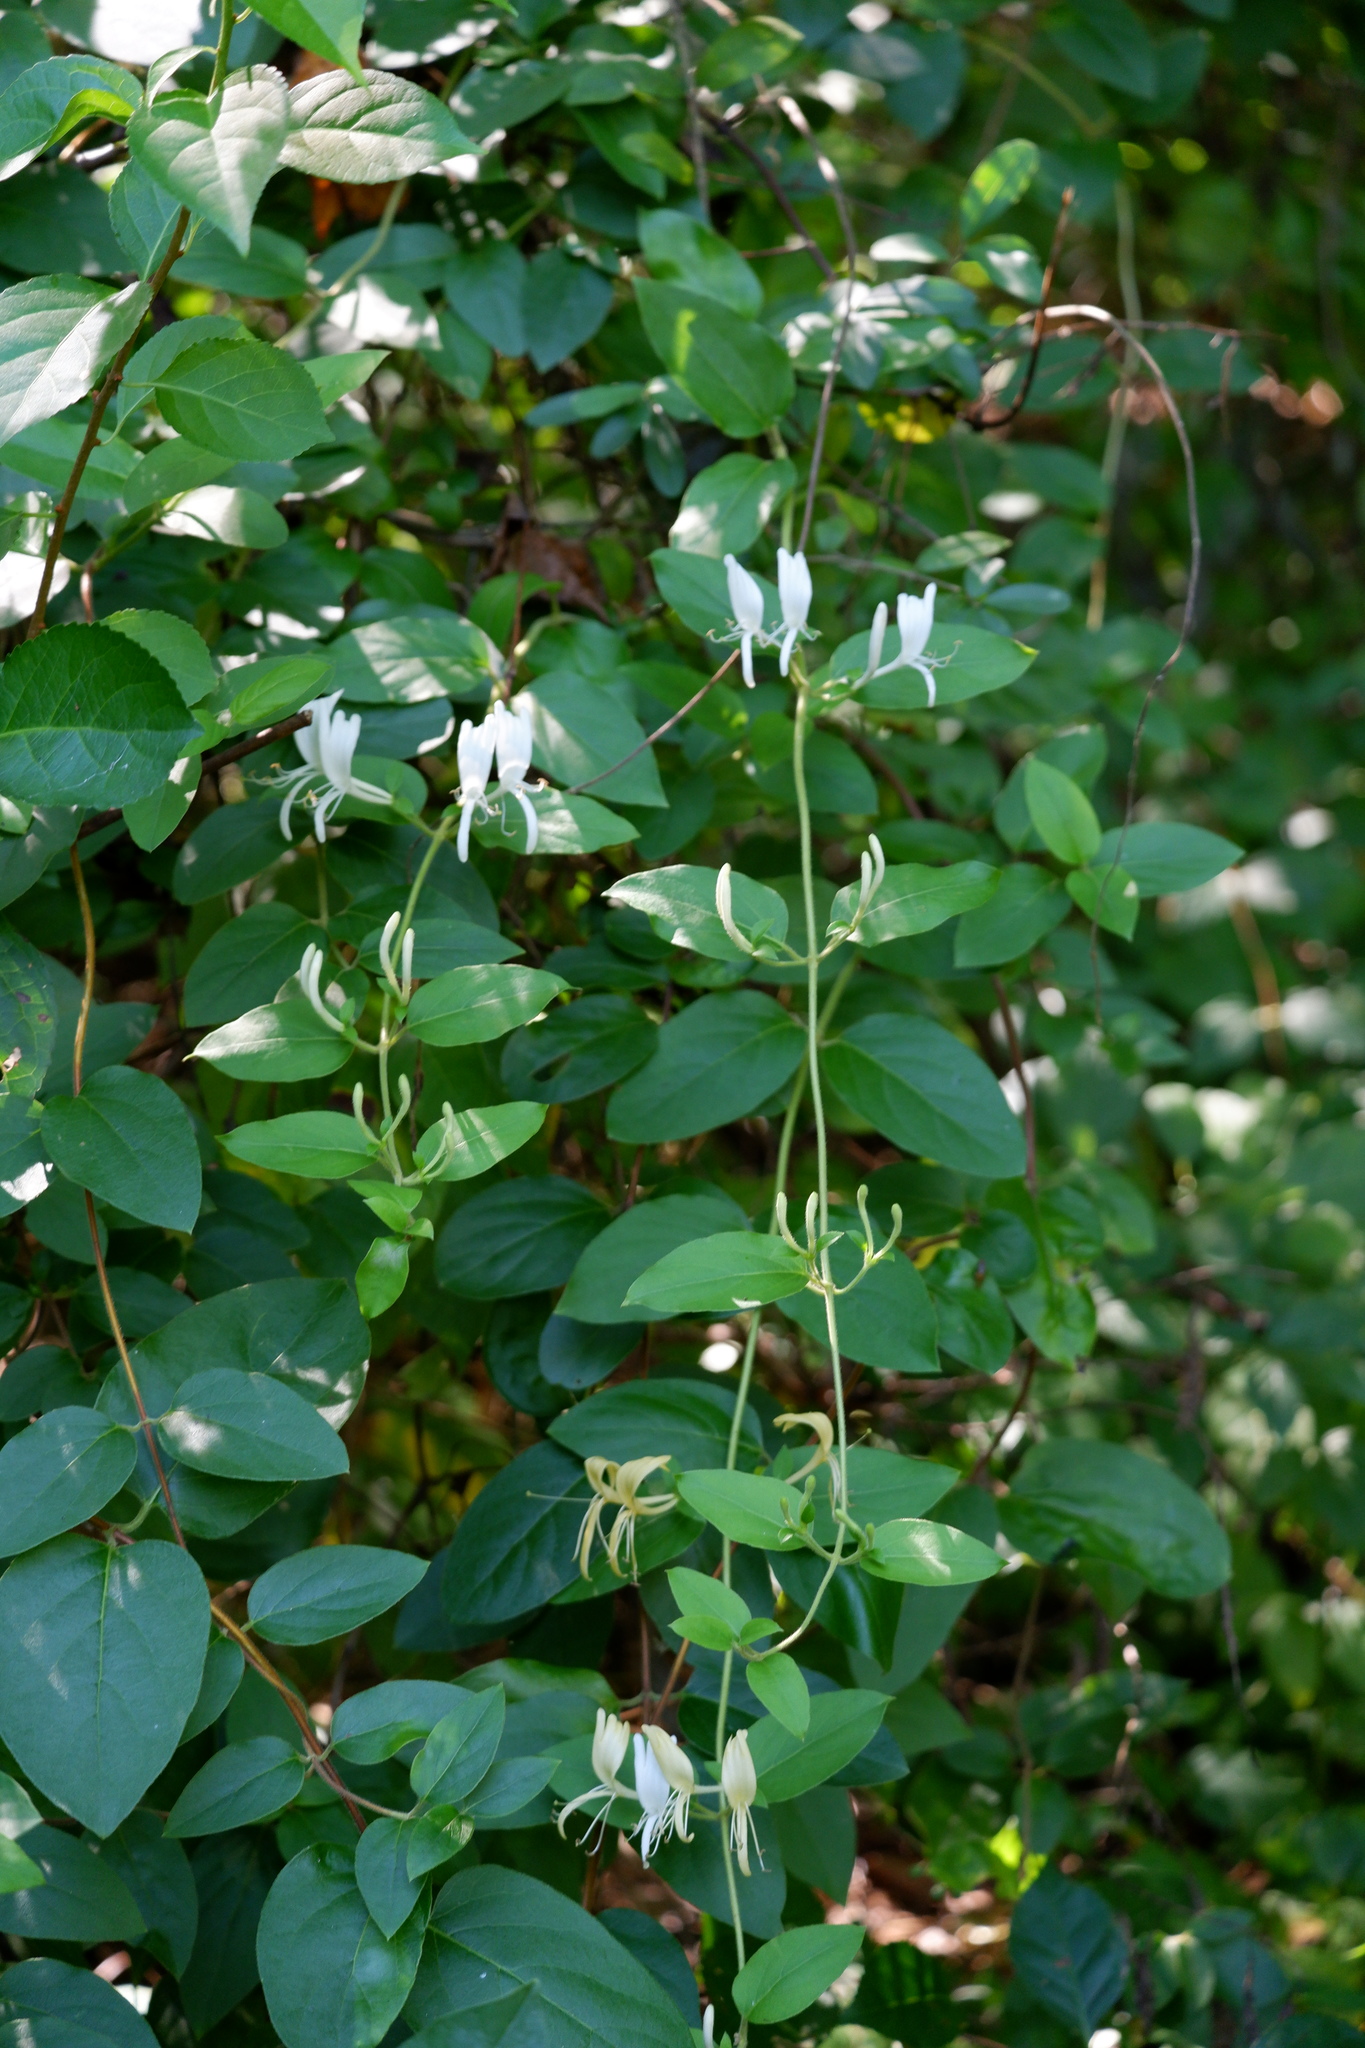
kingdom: Plantae
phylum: Tracheophyta
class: Magnoliopsida
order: Dipsacales
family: Caprifoliaceae
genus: Lonicera
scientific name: Lonicera japonica
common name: Japanese honeysuckle
